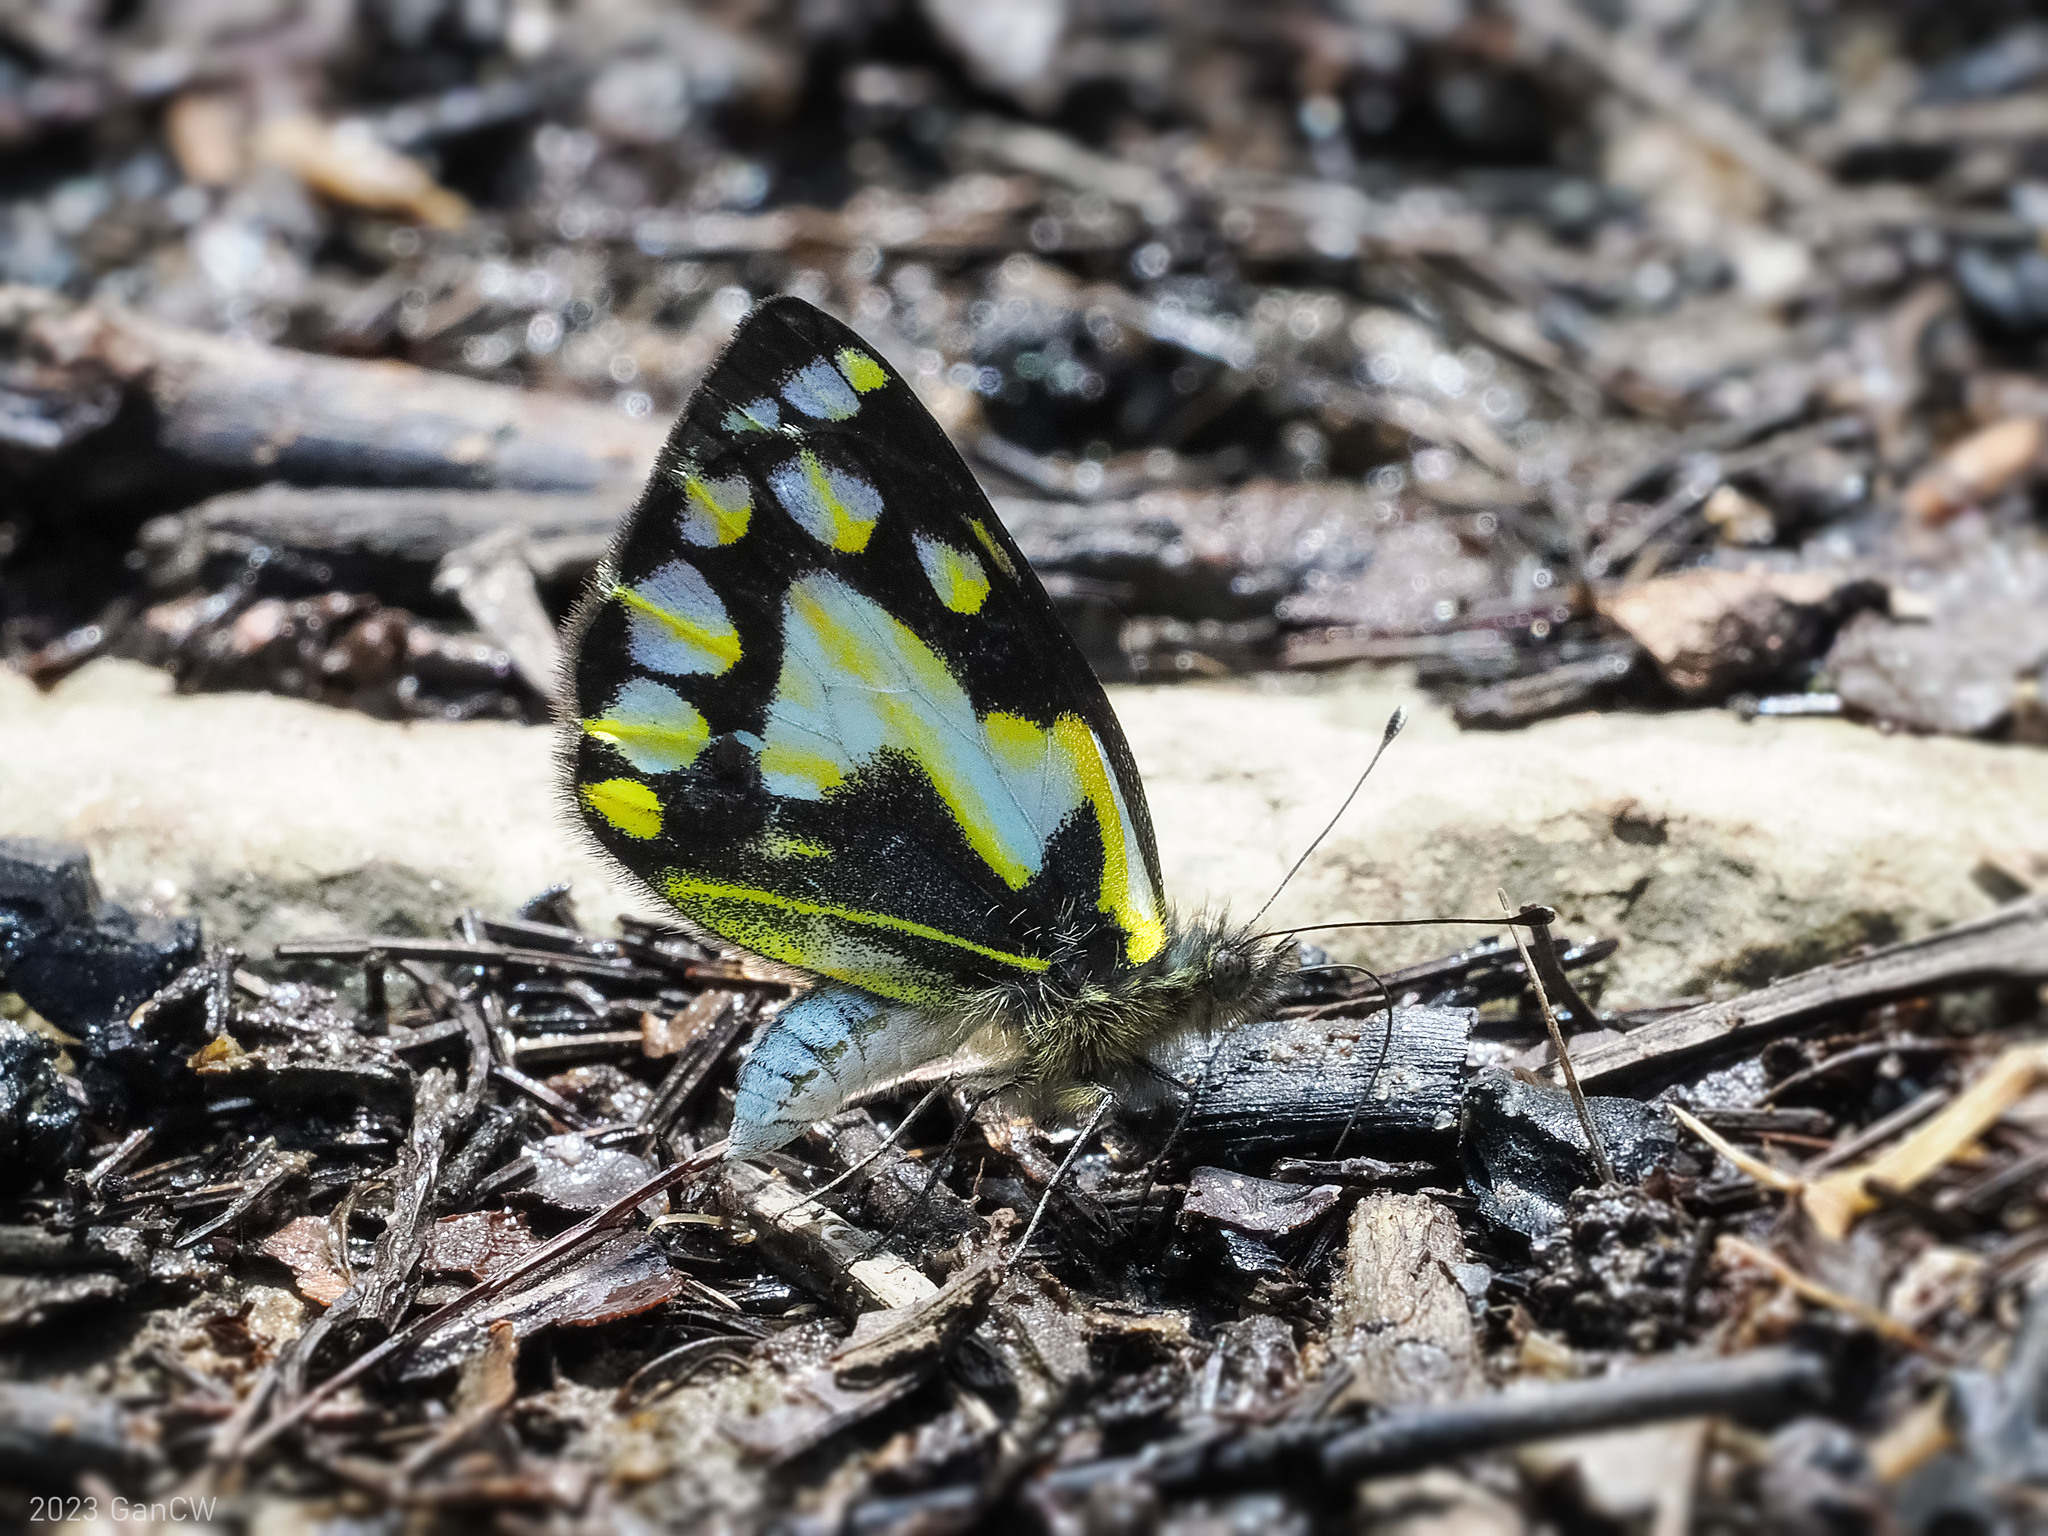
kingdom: Animalia
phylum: Arthropoda
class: Insecta
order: Lepidoptera
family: Pieridae
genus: Delias
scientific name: Delias germana
